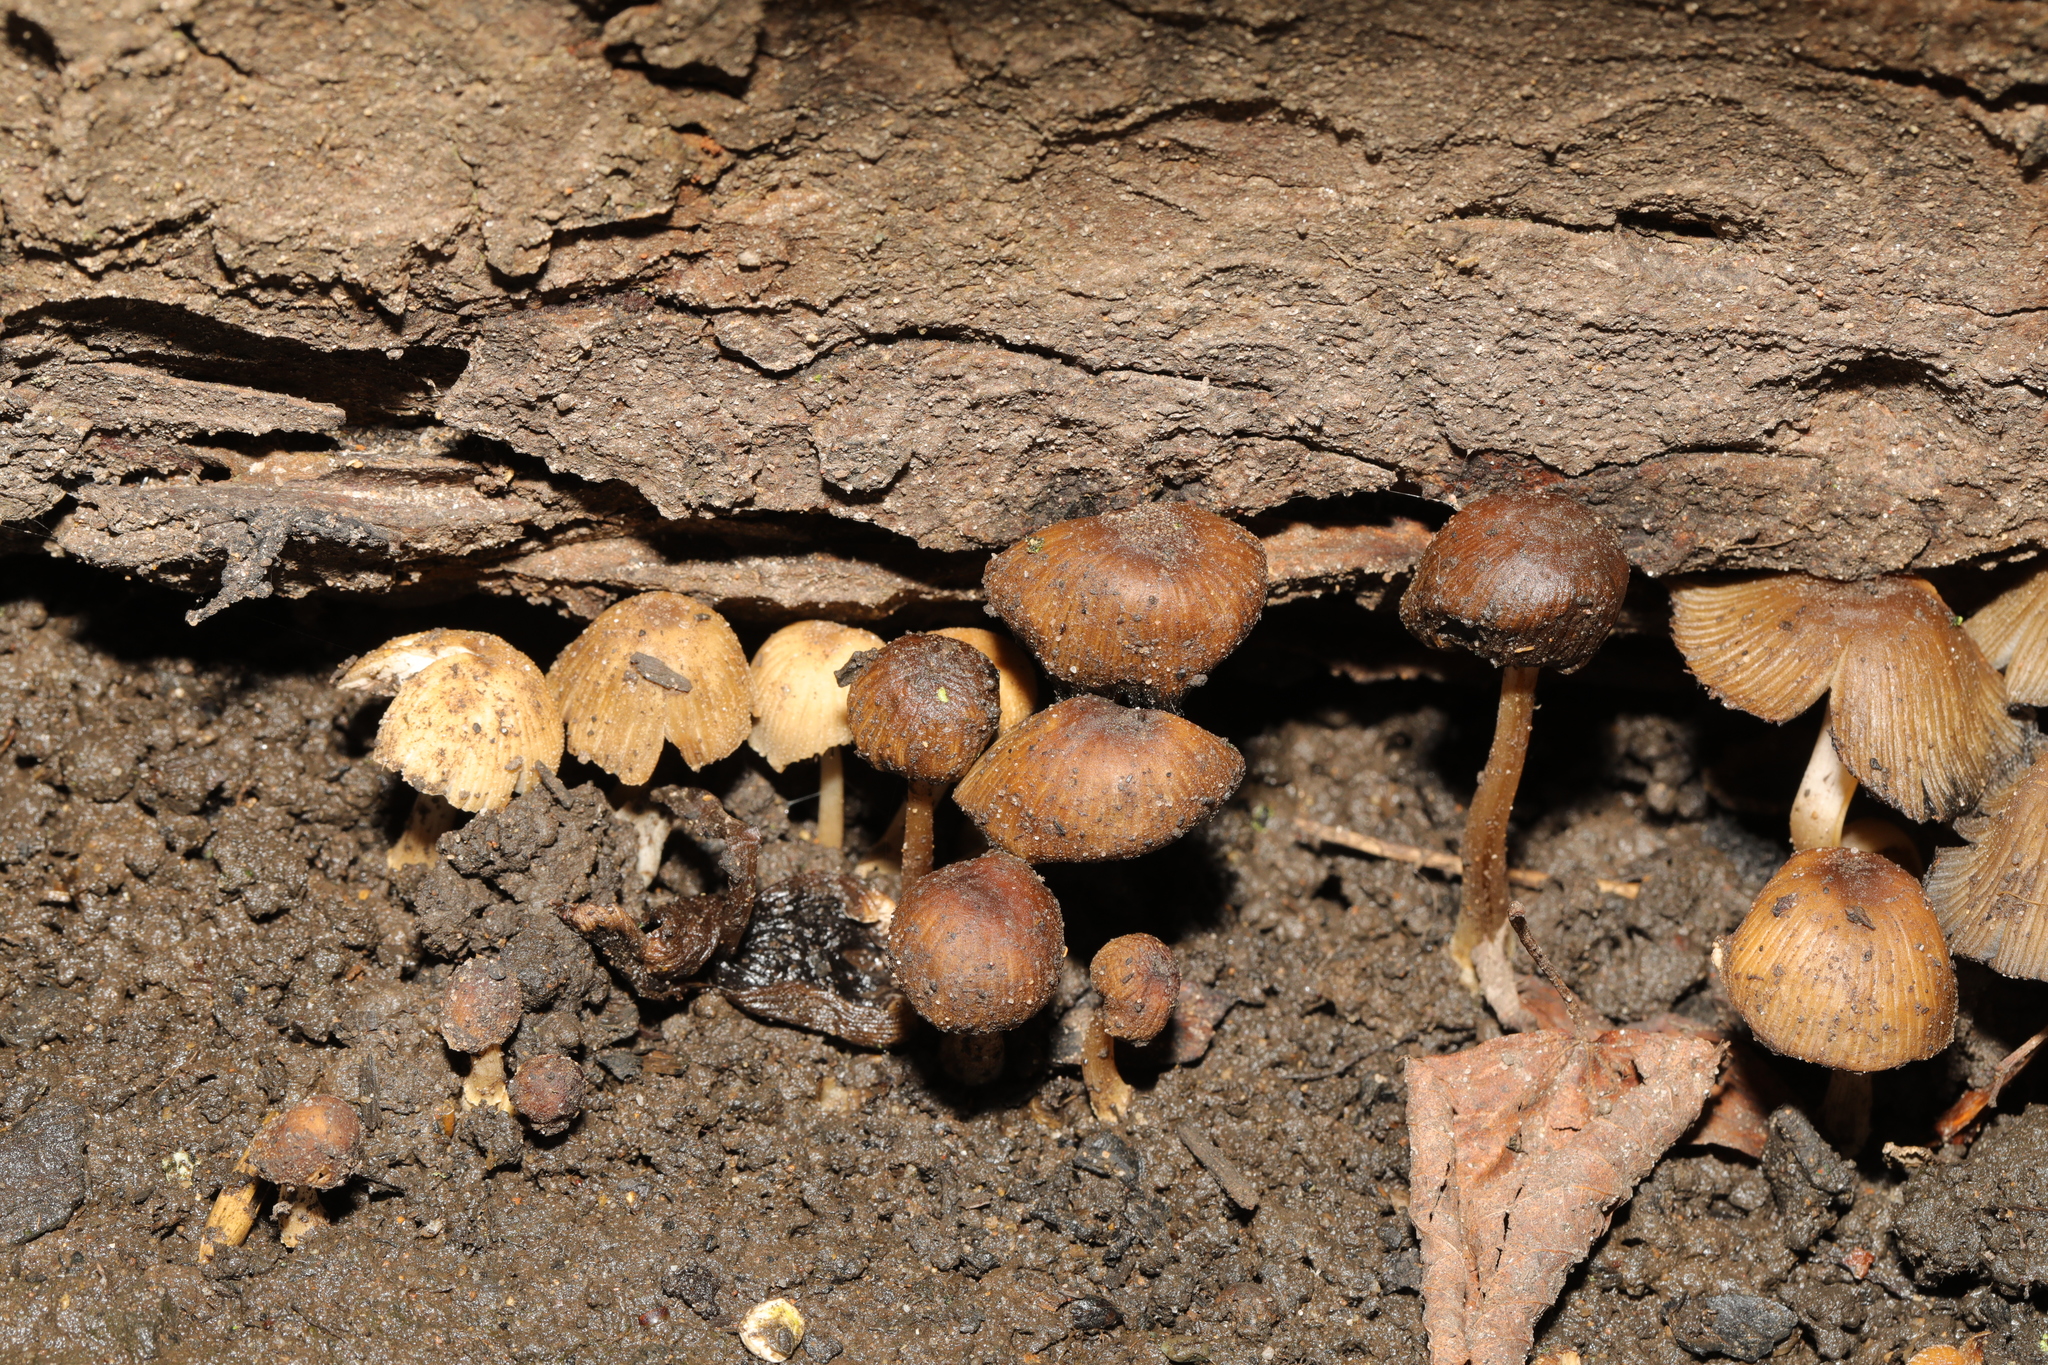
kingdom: Fungi
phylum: Basidiomycota
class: Agaricomycetes
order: Agaricales
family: Psathyrellaceae
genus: Coprinellus
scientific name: Coprinellus micaceus
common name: Glistening ink-cap
